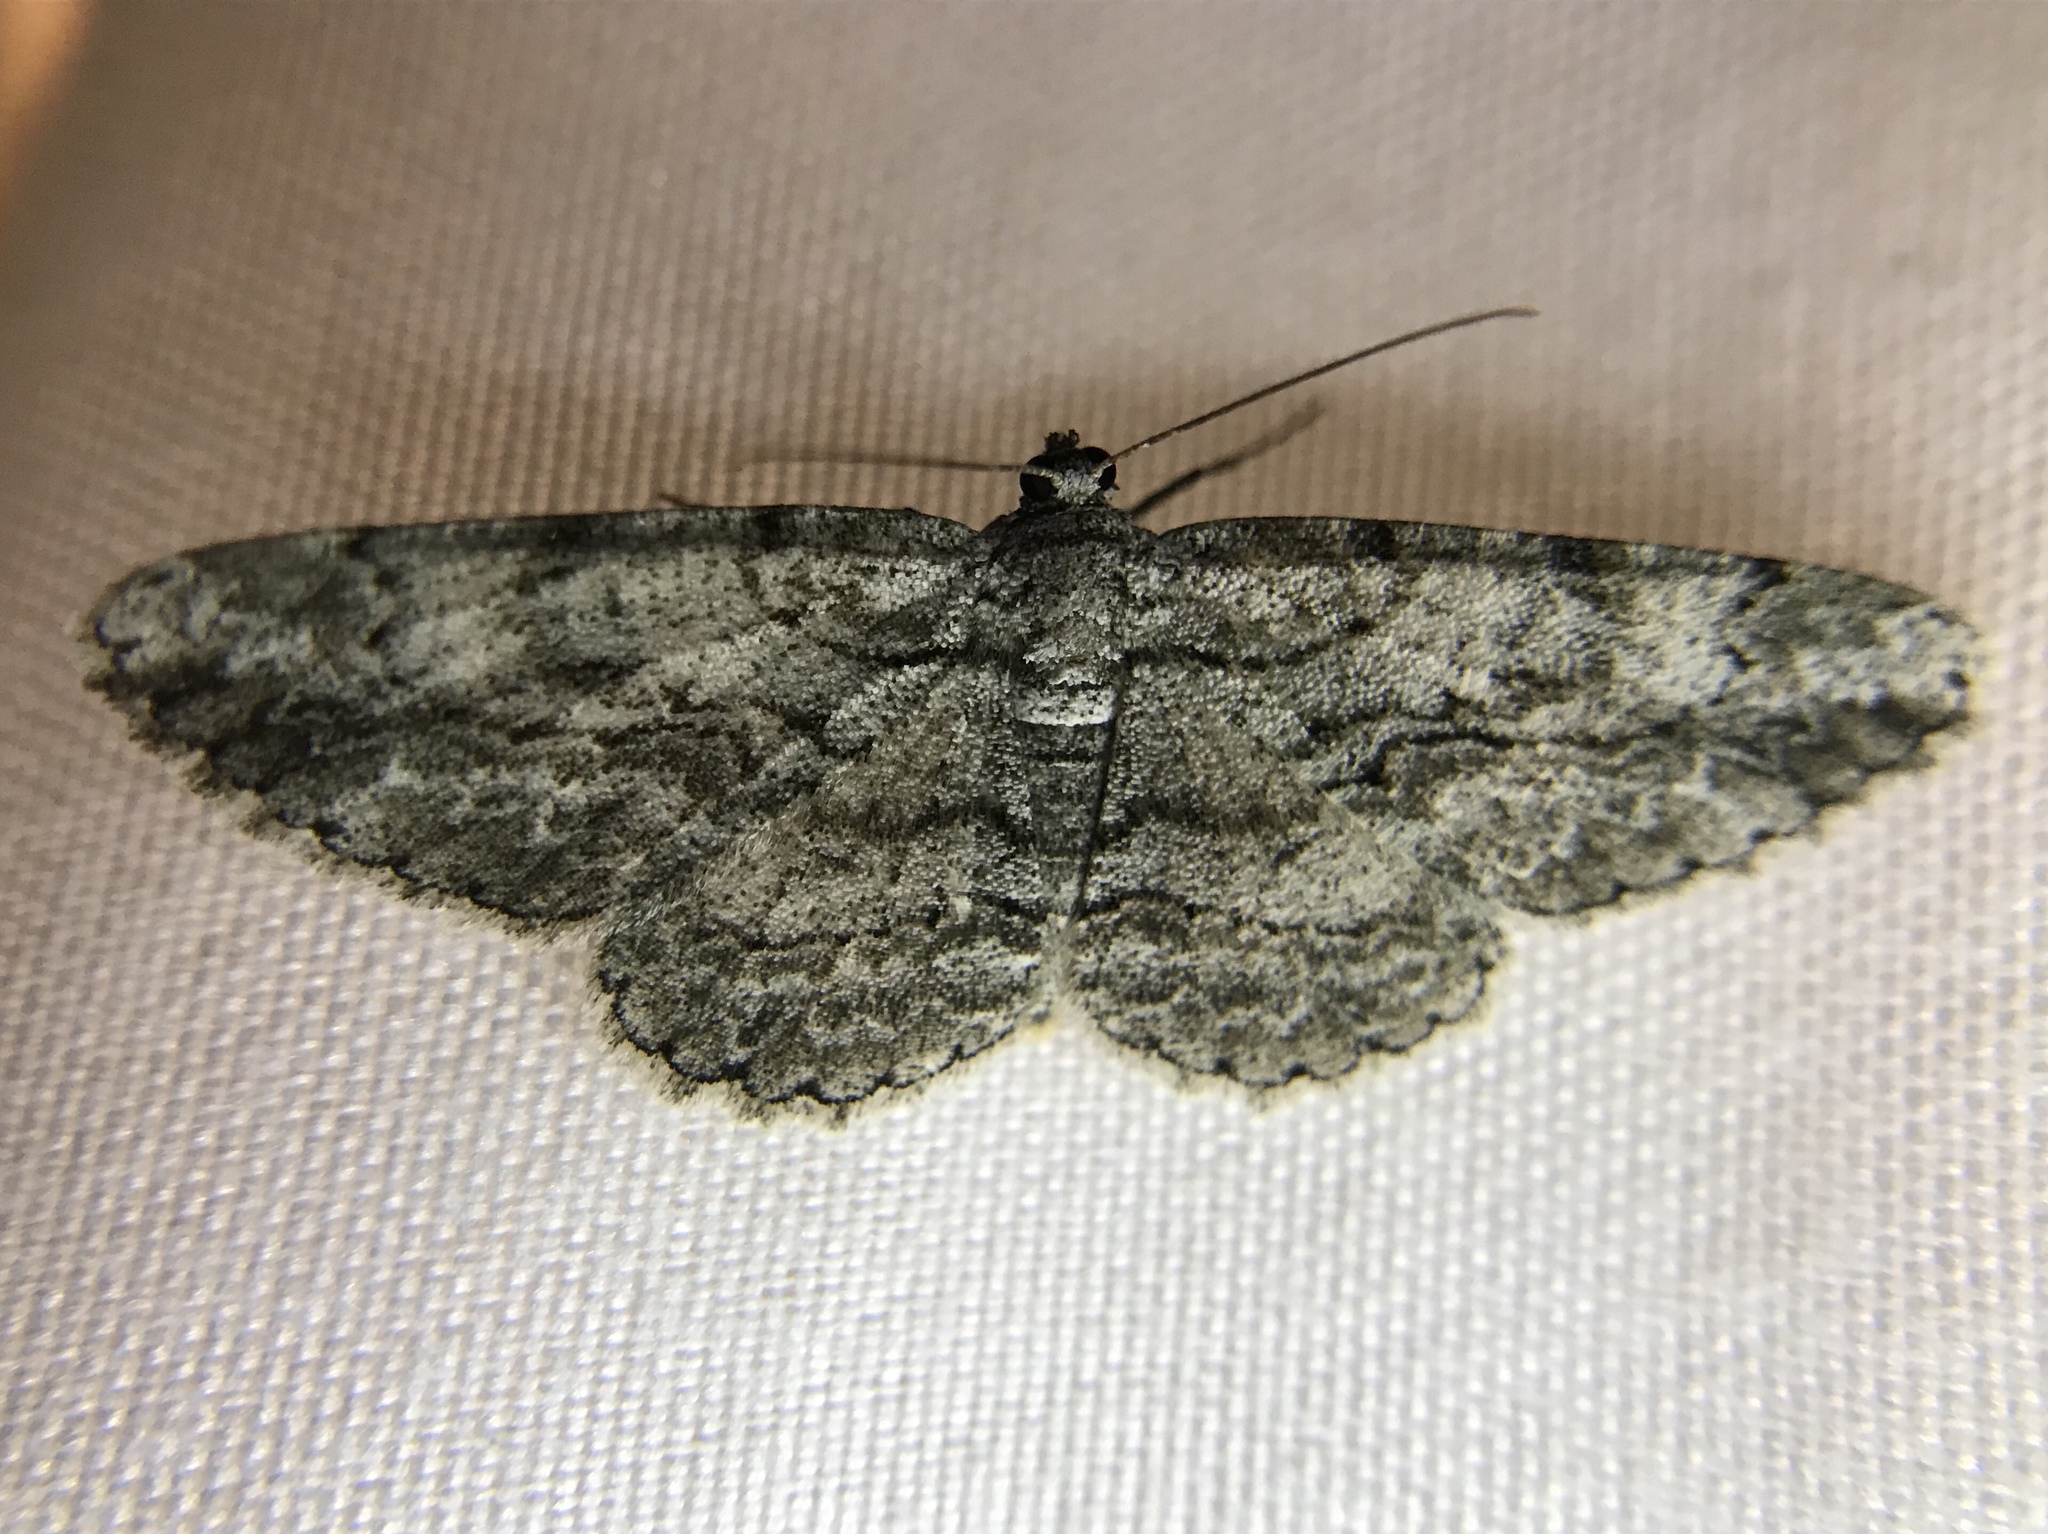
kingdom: Animalia
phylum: Arthropoda
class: Insecta
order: Lepidoptera
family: Geometridae
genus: Anavitrinella
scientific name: Anavitrinella pampinaria
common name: Common gray
